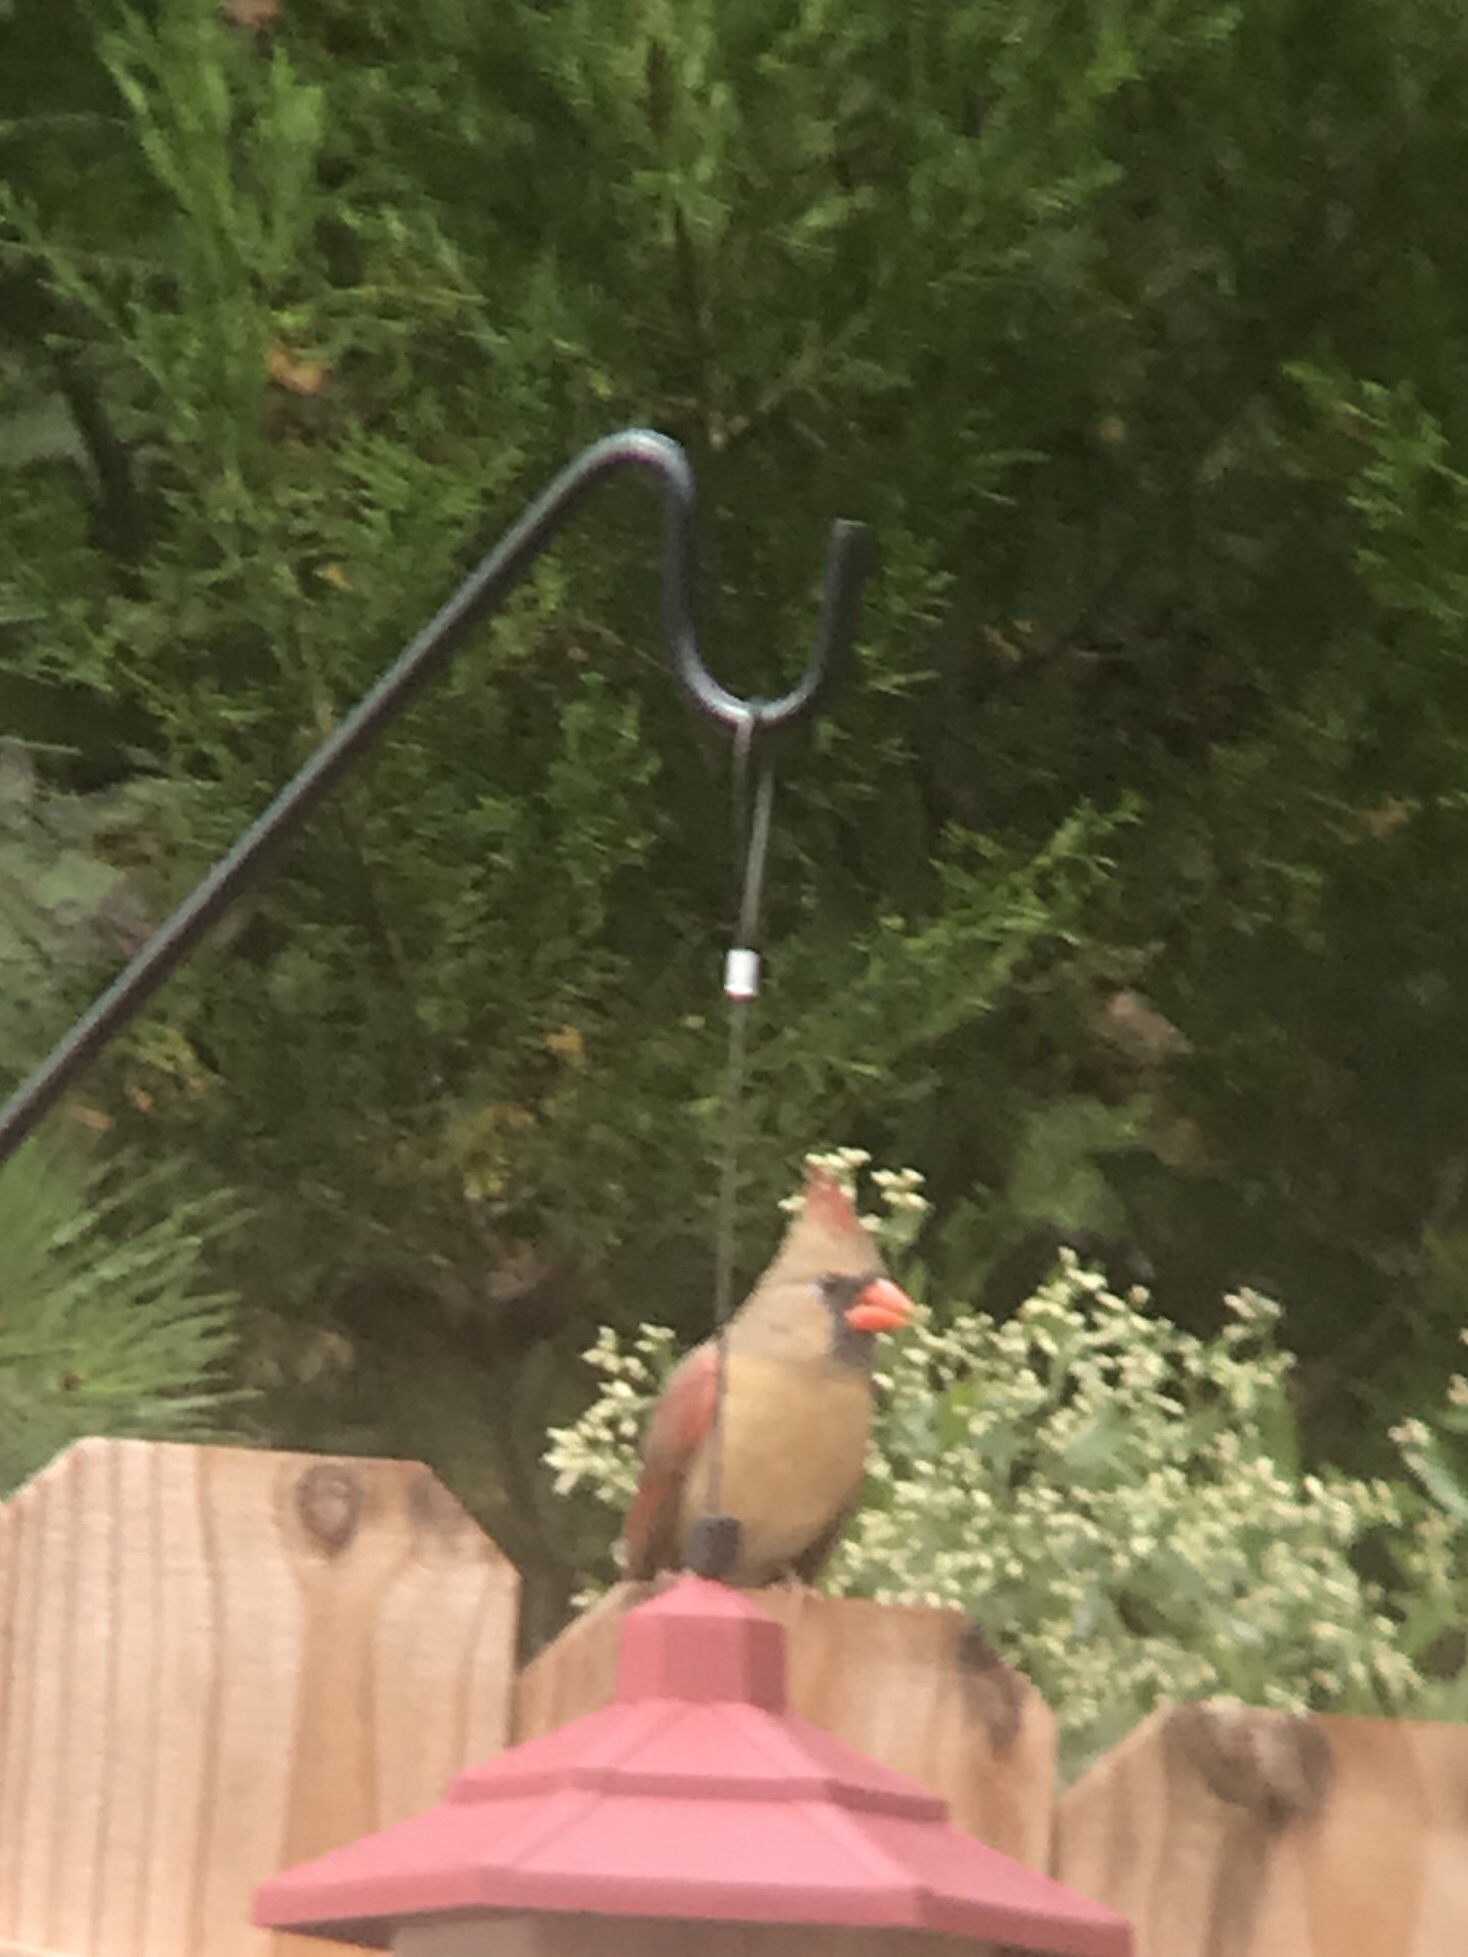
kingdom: Animalia
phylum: Chordata
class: Aves
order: Passeriformes
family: Cardinalidae
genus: Cardinalis
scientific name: Cardinalis cardinalis
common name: Northern cardinal
